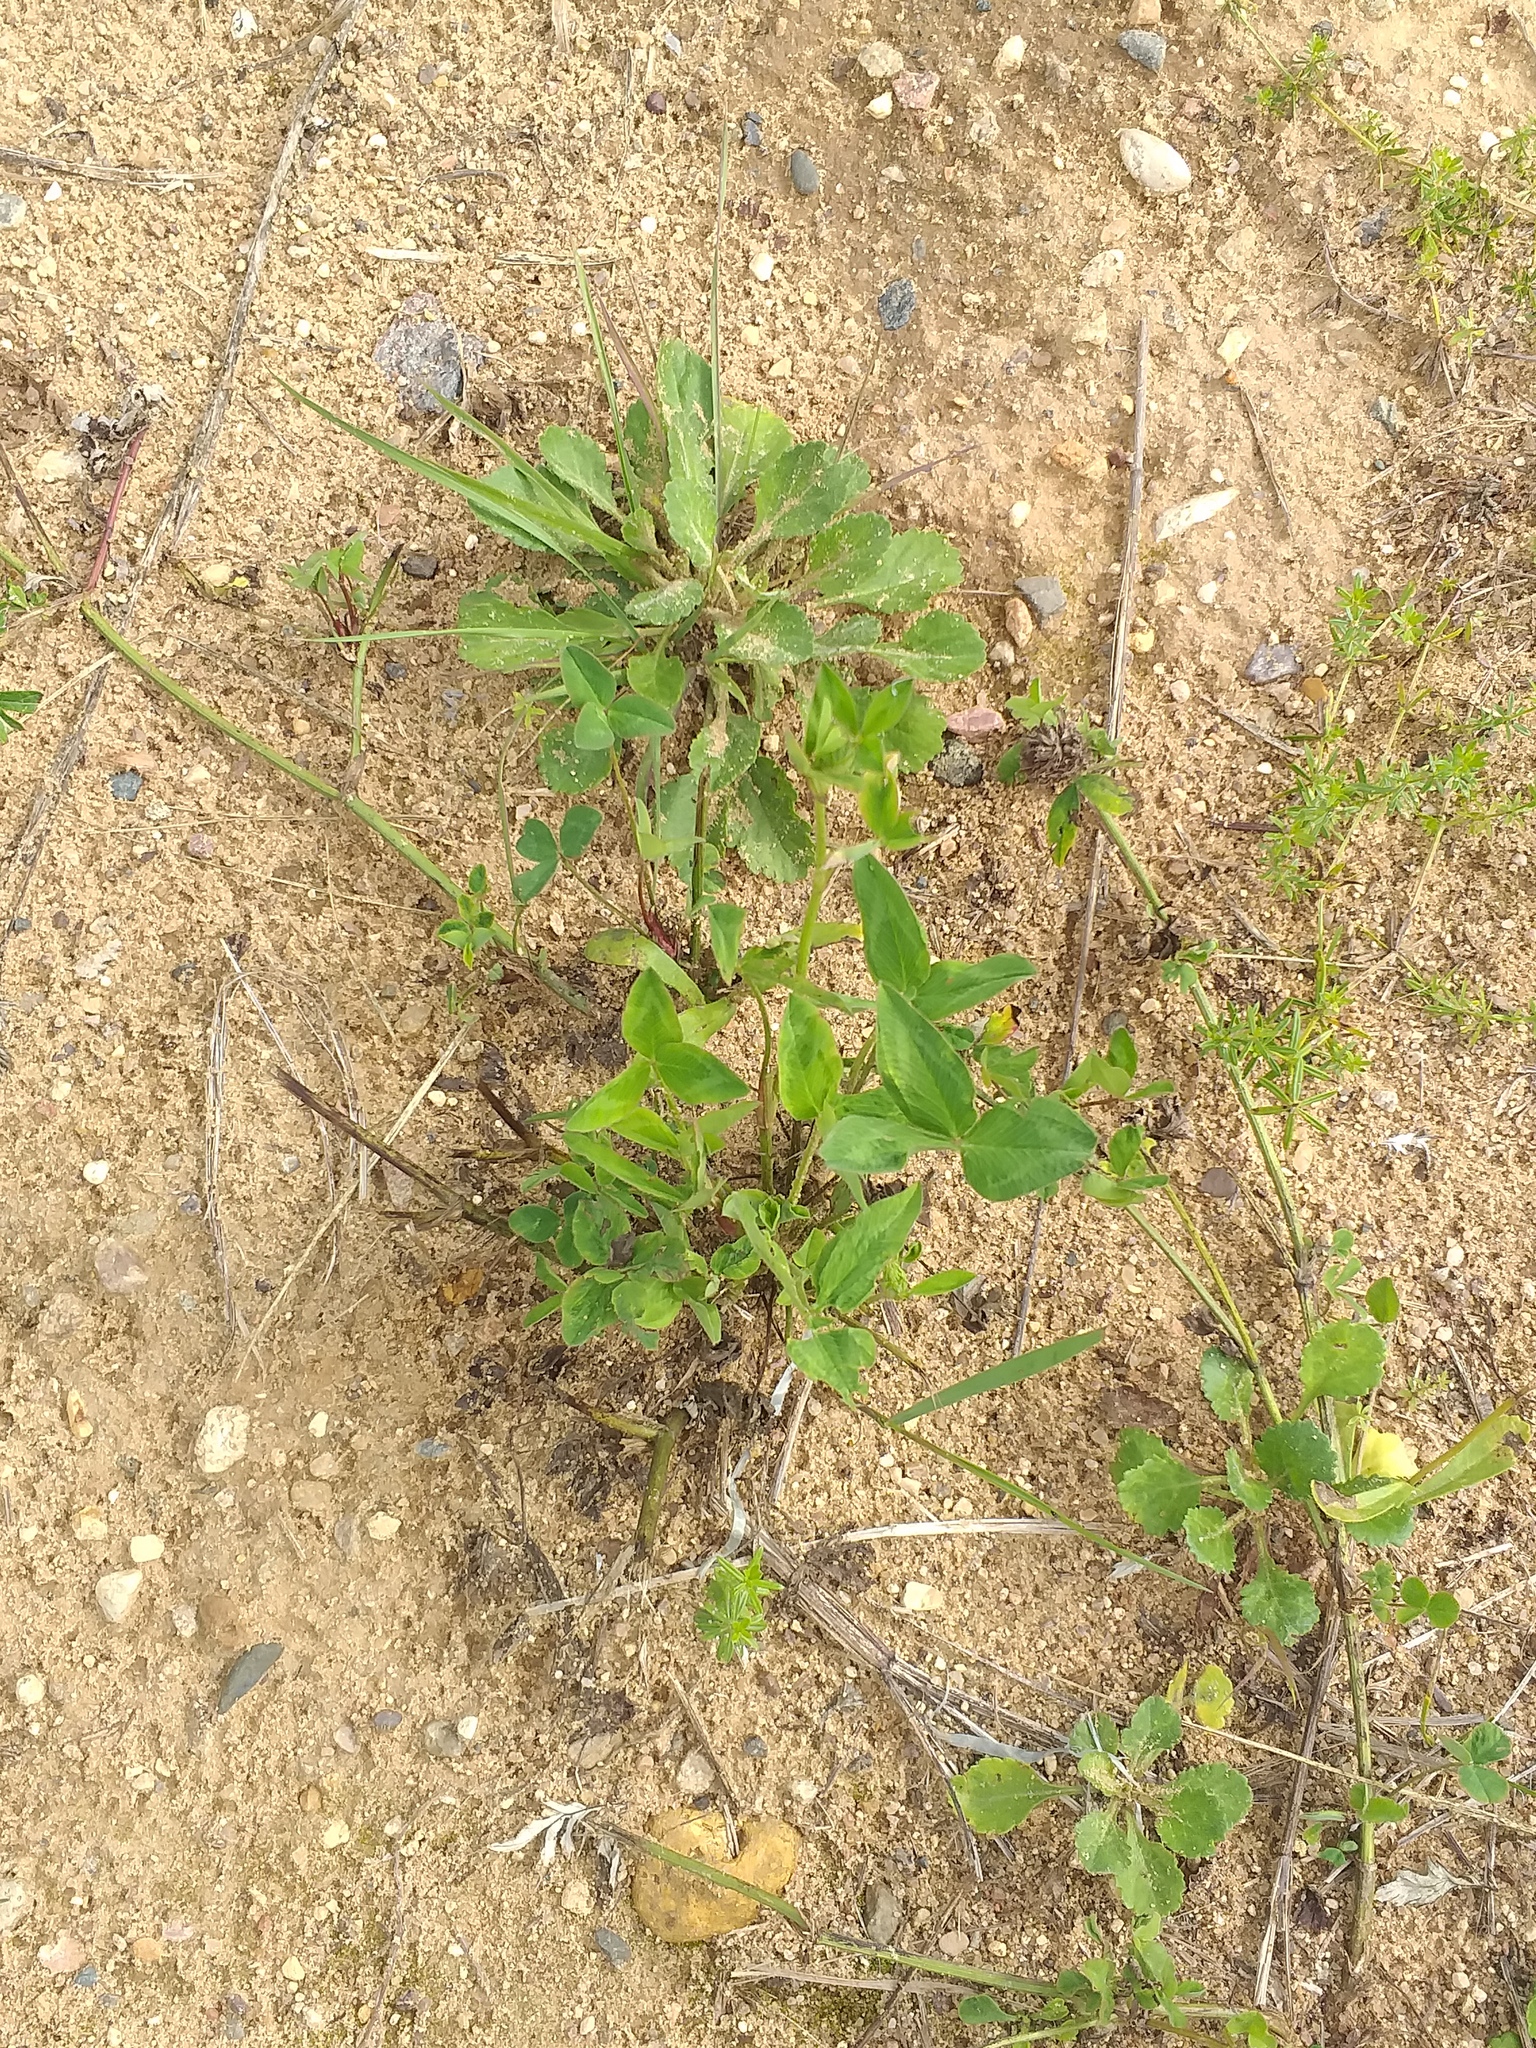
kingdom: Plantae
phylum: Tracheophyta
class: Magnoliopsida
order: Fabales
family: Fabaceae
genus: Trifolium
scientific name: Trifolium pratense
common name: Red clover
